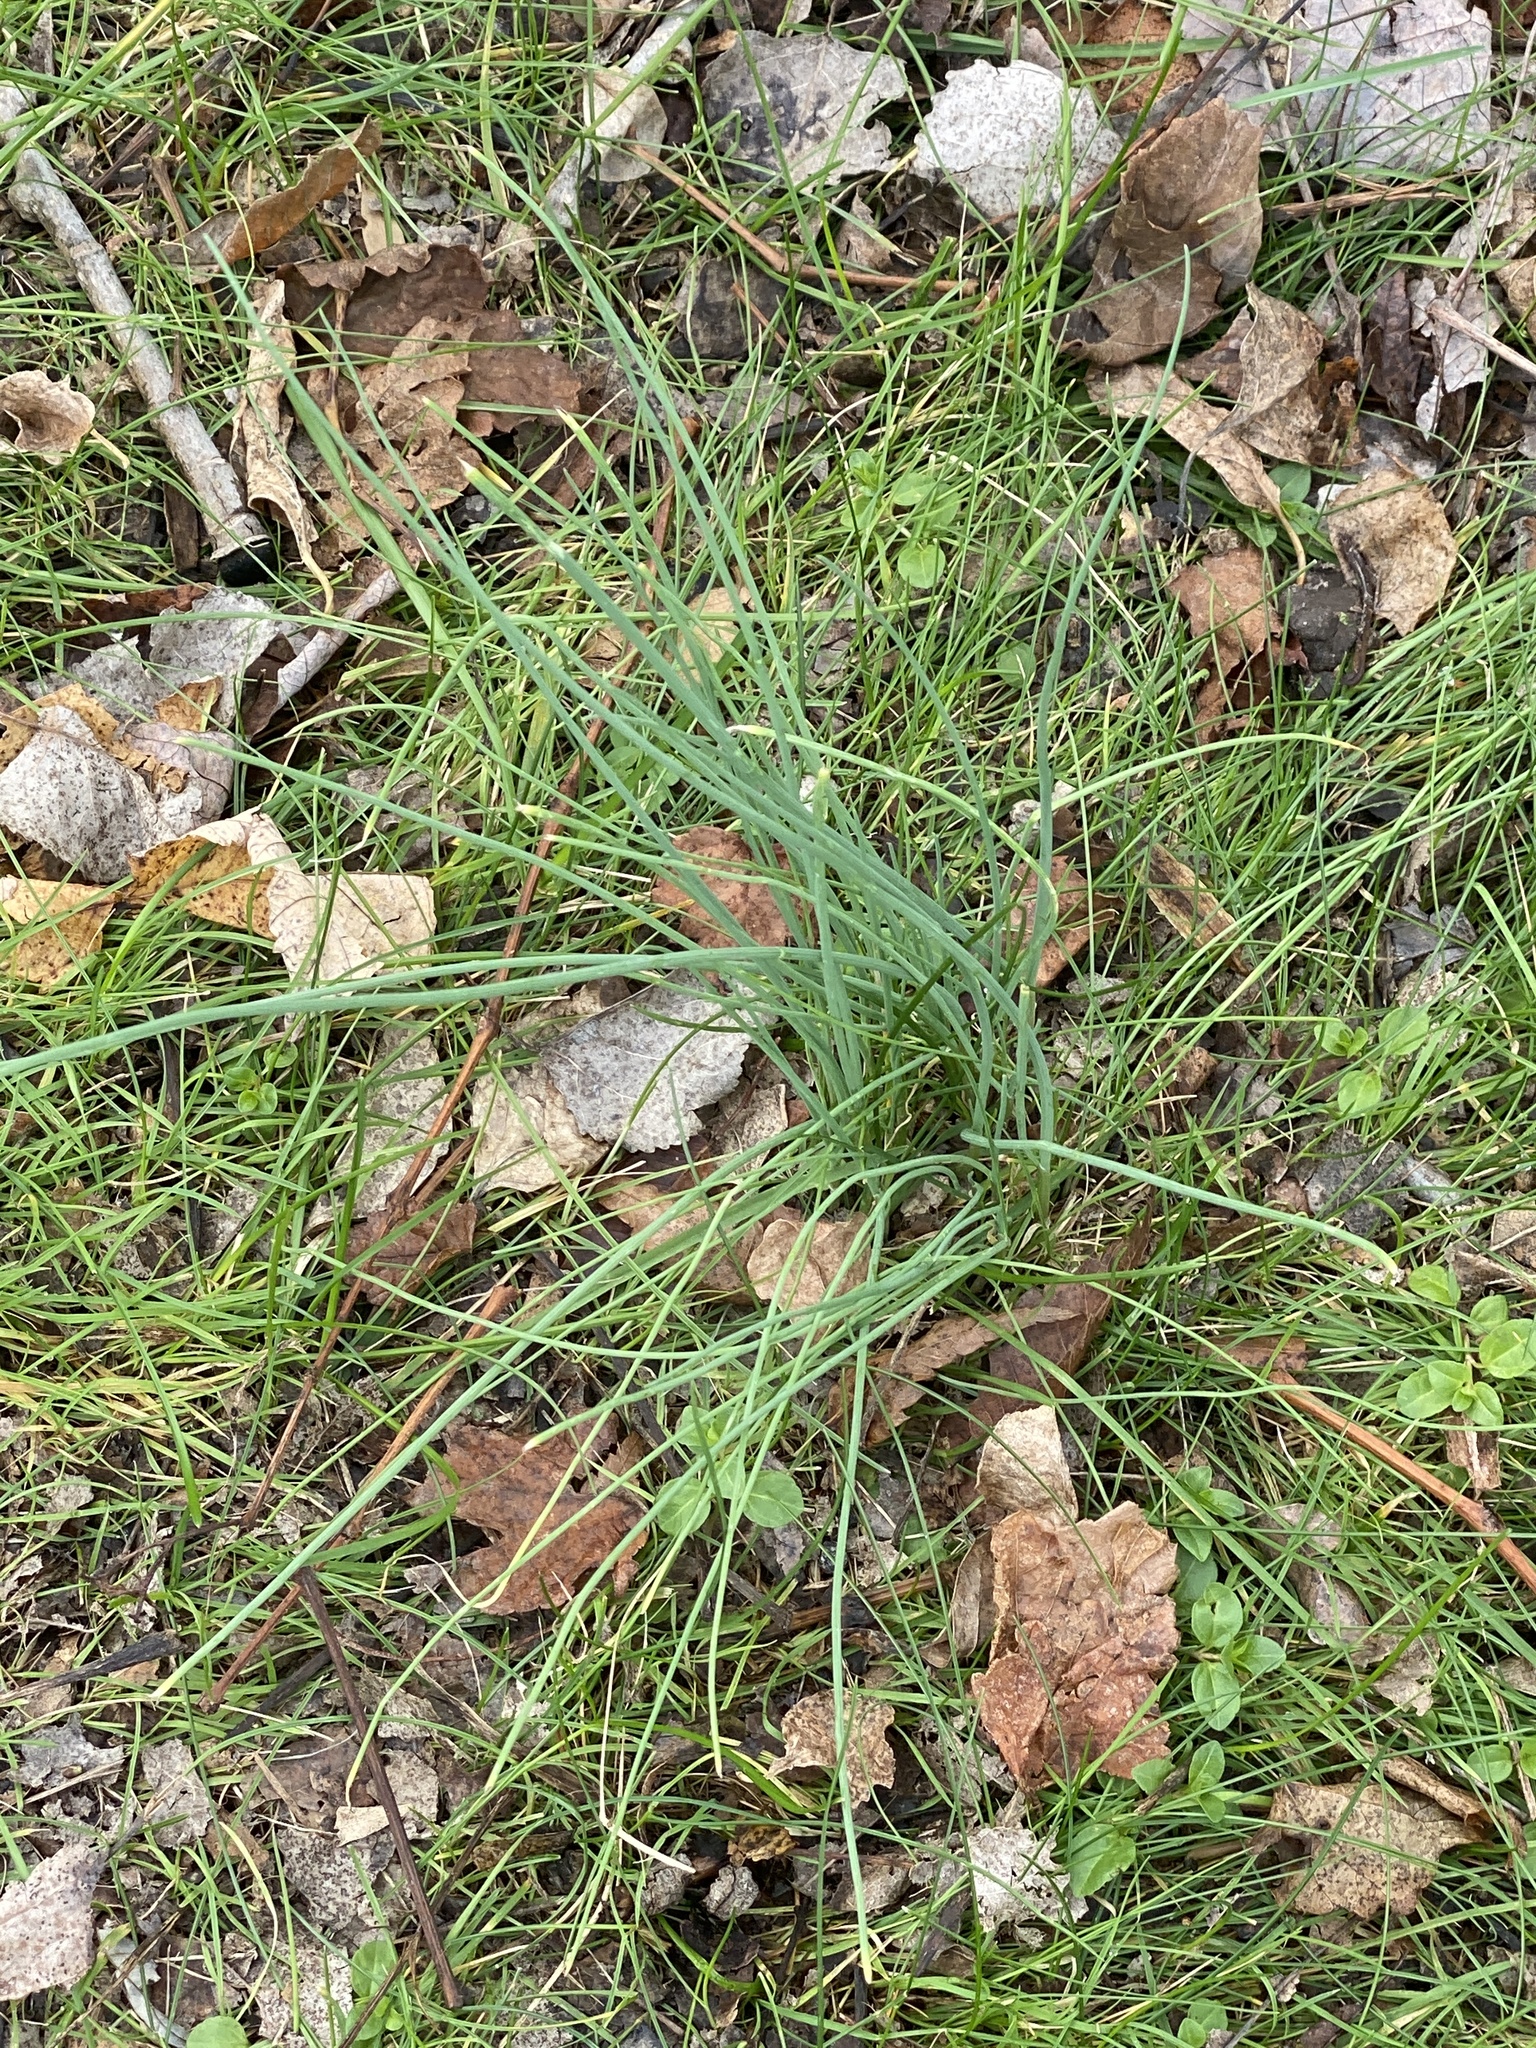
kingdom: Plantae
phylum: Tracheophyta
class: Liliopsida
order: Asparagales
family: Amaryllidaceae
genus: Allium
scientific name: Allium vineale
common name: Crow garlic
